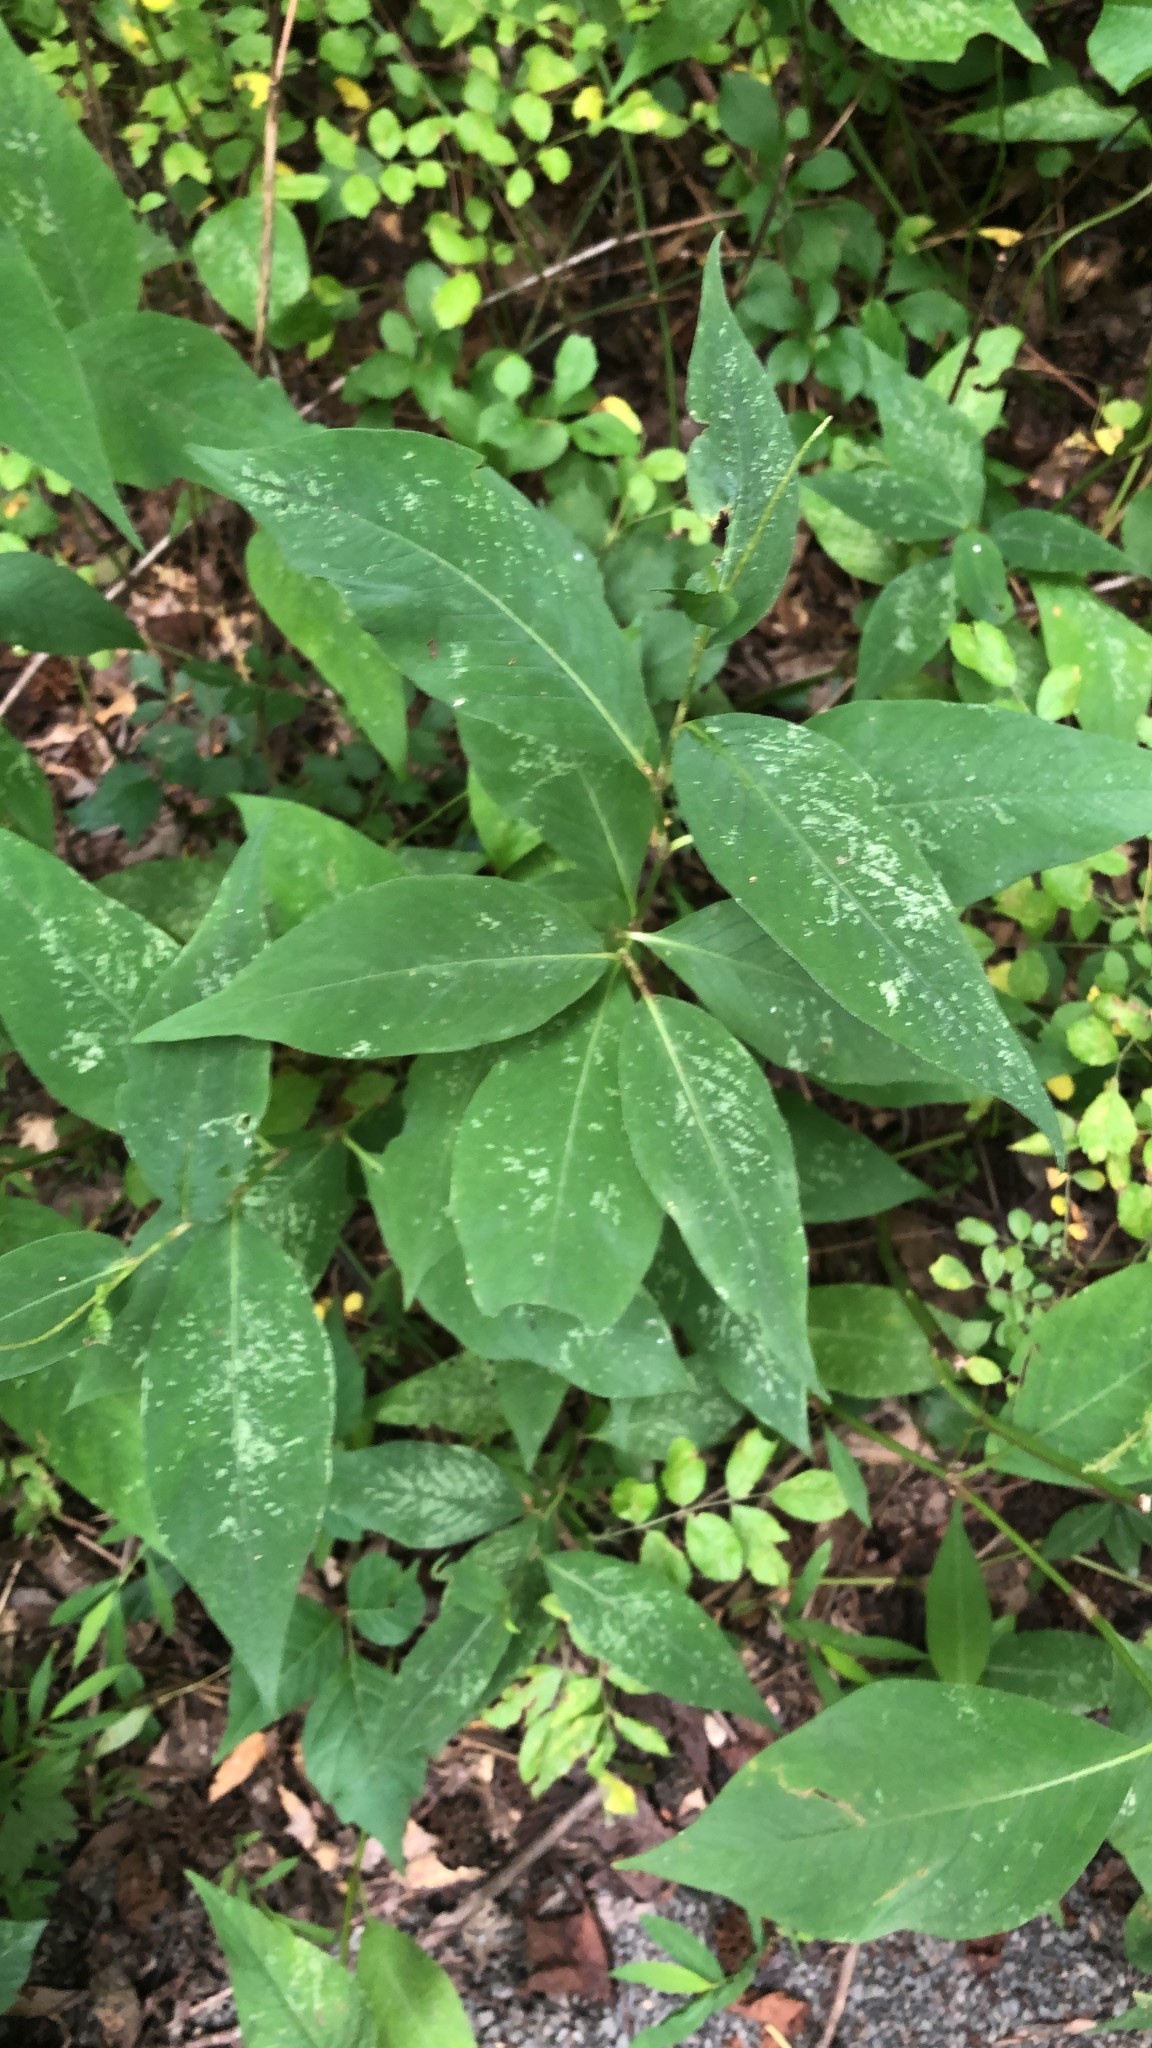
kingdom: Plantae
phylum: Tracheophyta
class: Magnoliopsida
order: Caryophyllales
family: Polygonaceae
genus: Persicaria
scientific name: Persicaria virginiana
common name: Jumpseed
